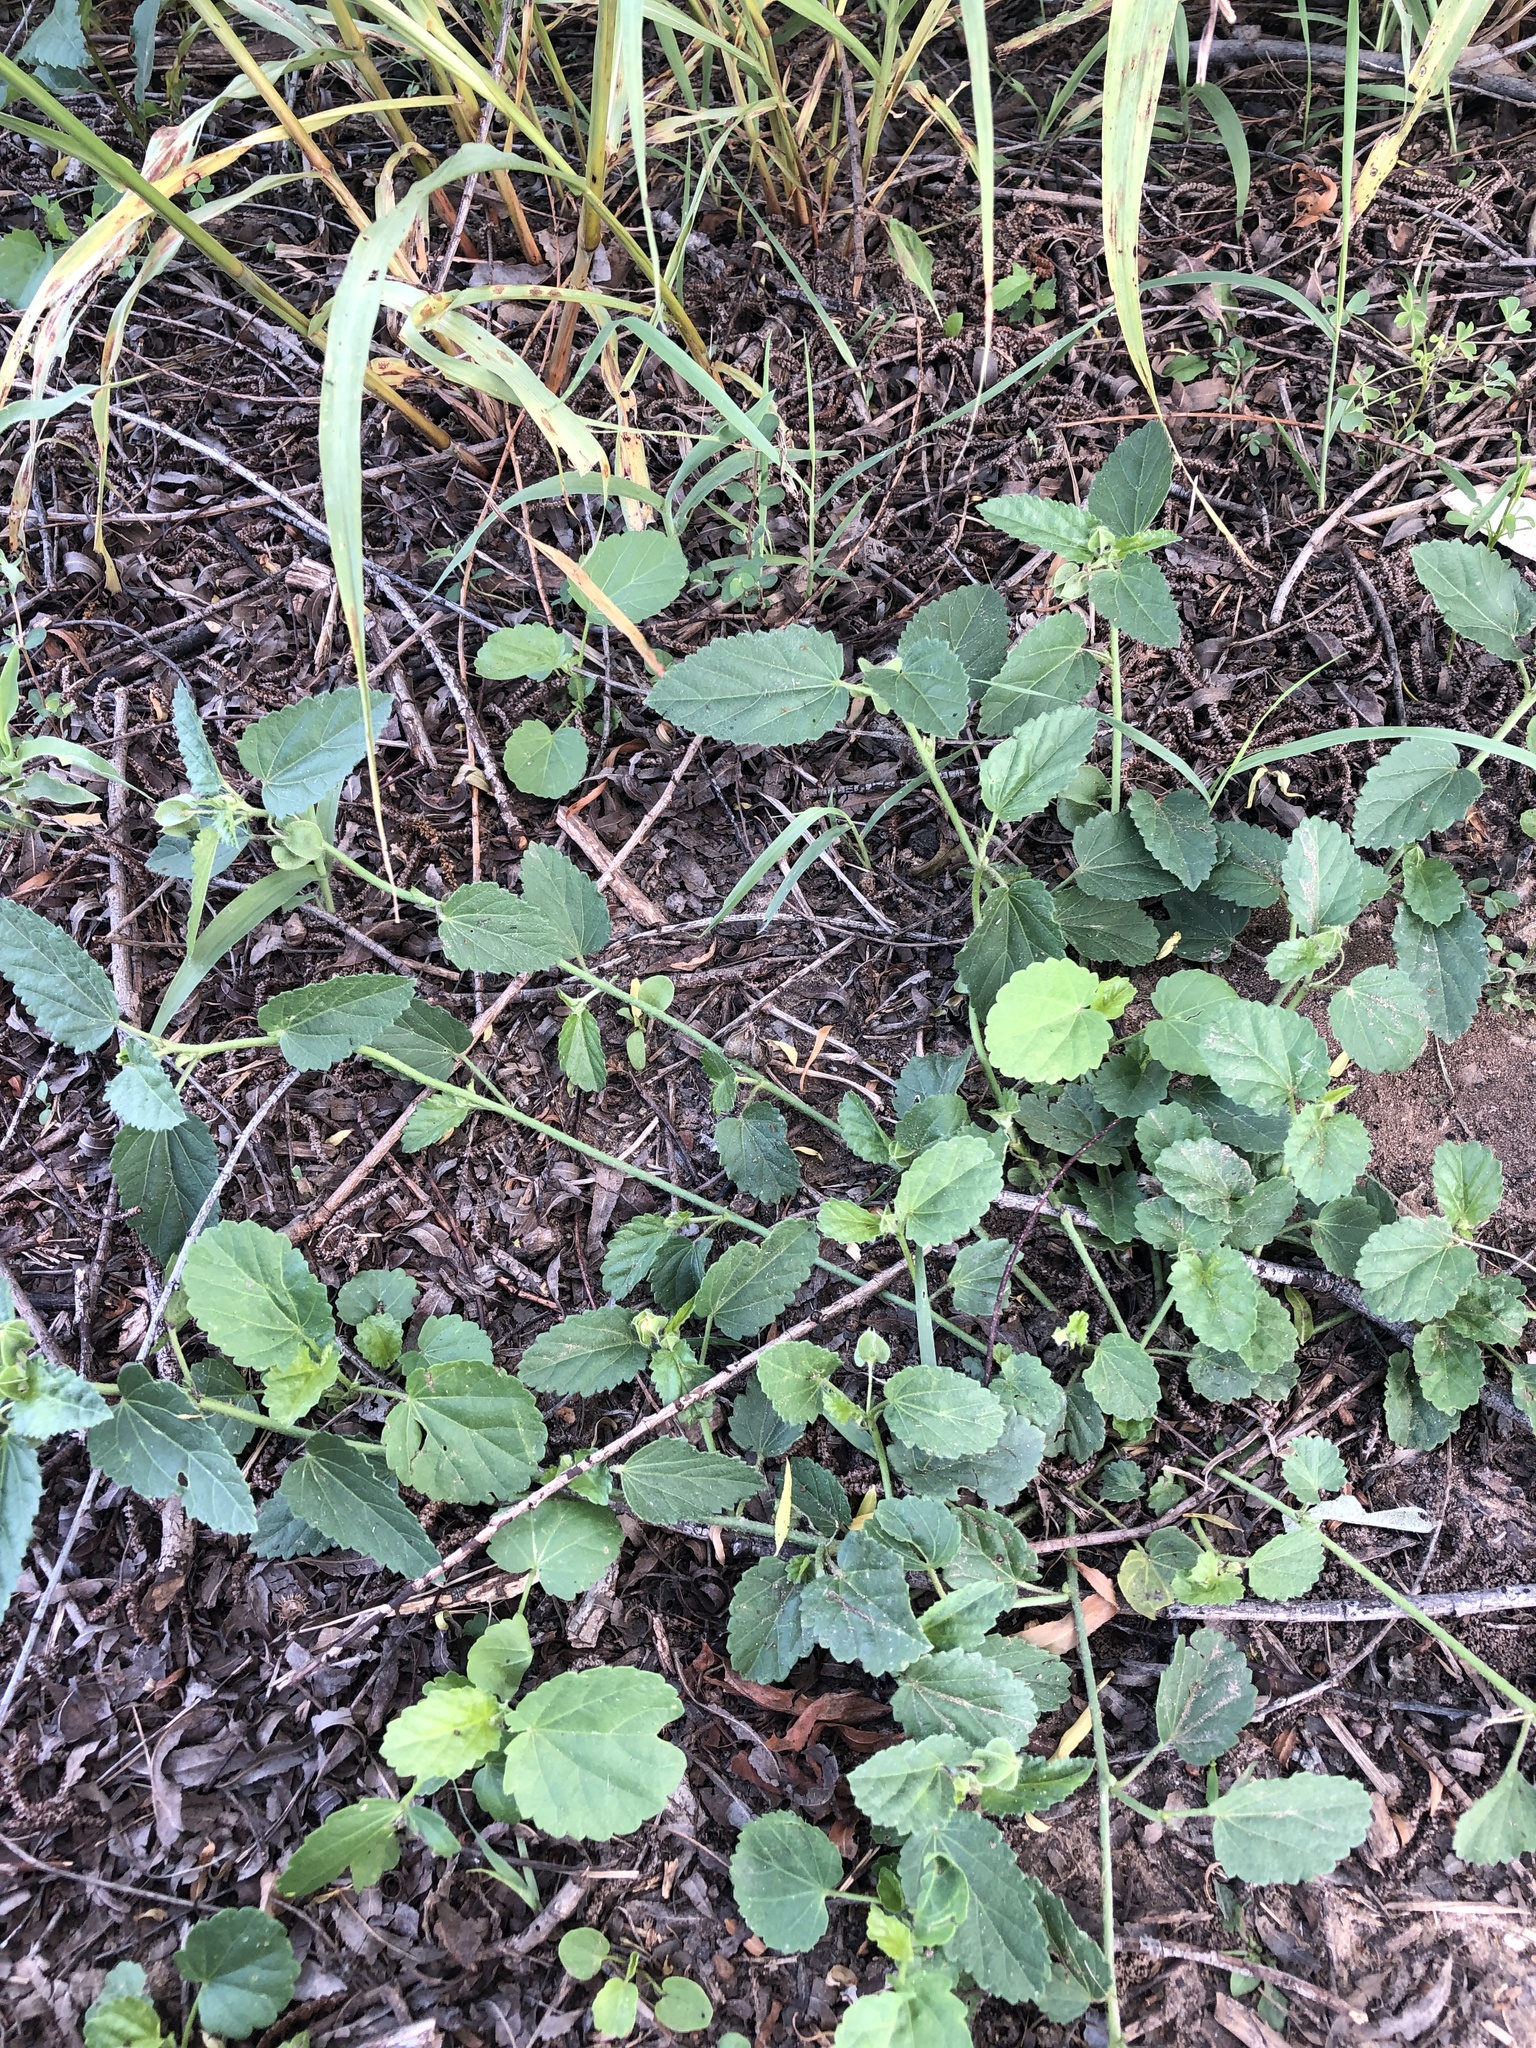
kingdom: Plantae
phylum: Tracheophyta
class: Magnoliopsida
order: Malvales
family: Malvaceae
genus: Rhynchosida
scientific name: Rhynchosida physocalyx
